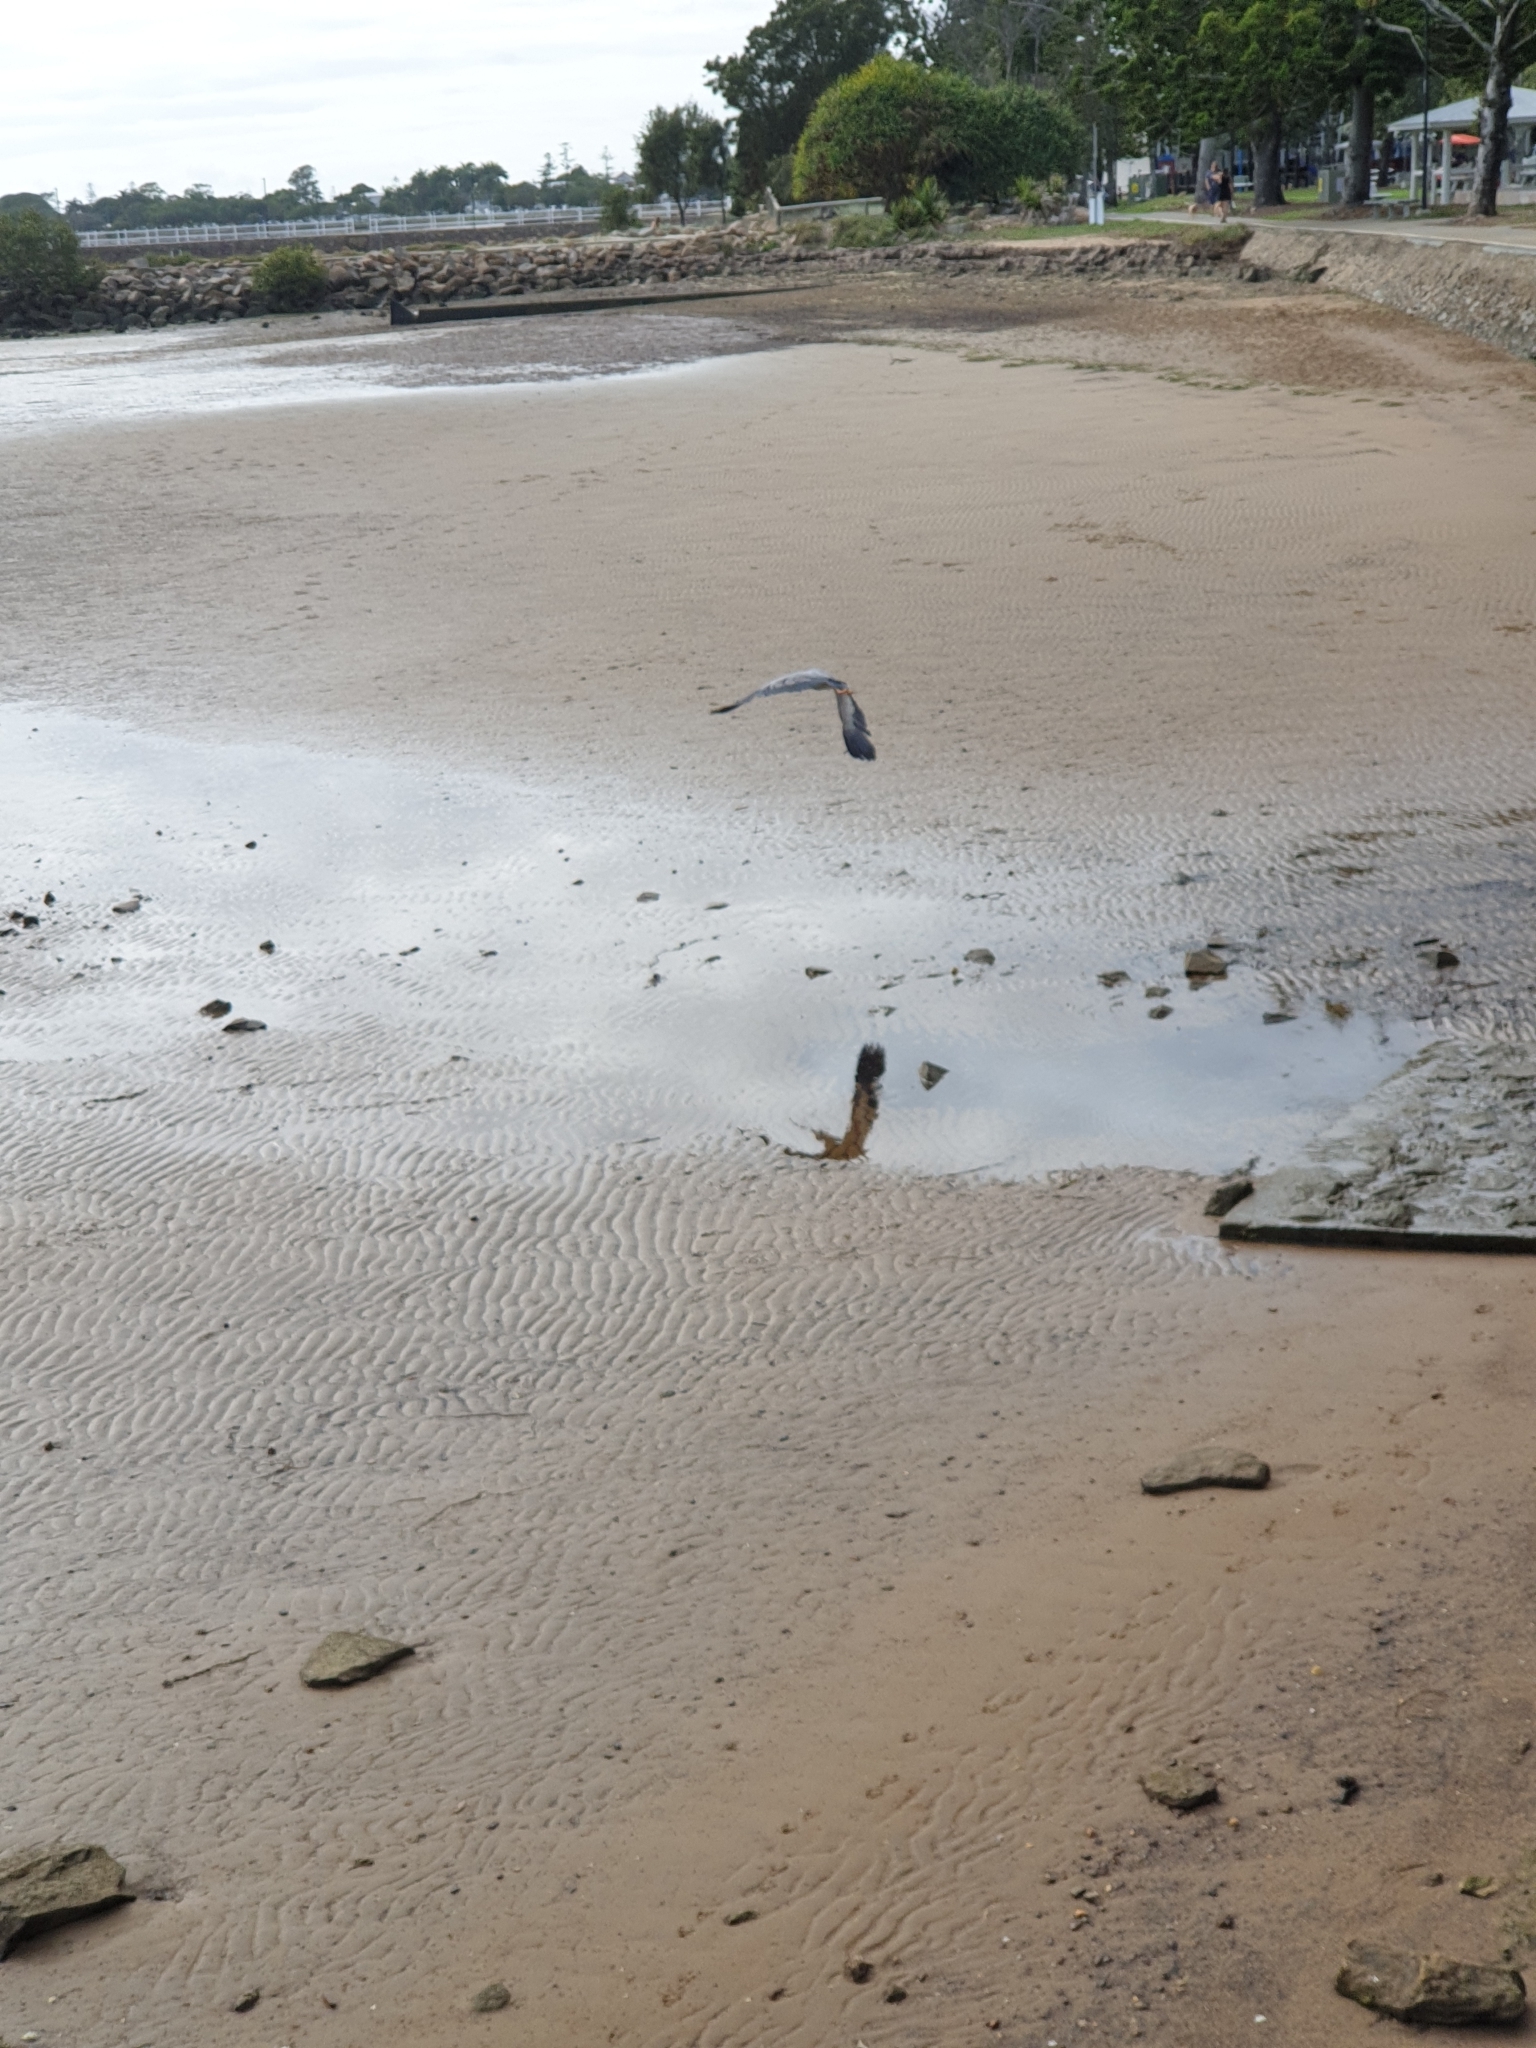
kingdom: Animalia
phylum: Chordata
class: Aves
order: Pelecaniformes
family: Ardeidae
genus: Egretta
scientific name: Egretta novaehollandiae
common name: White-faced heron
